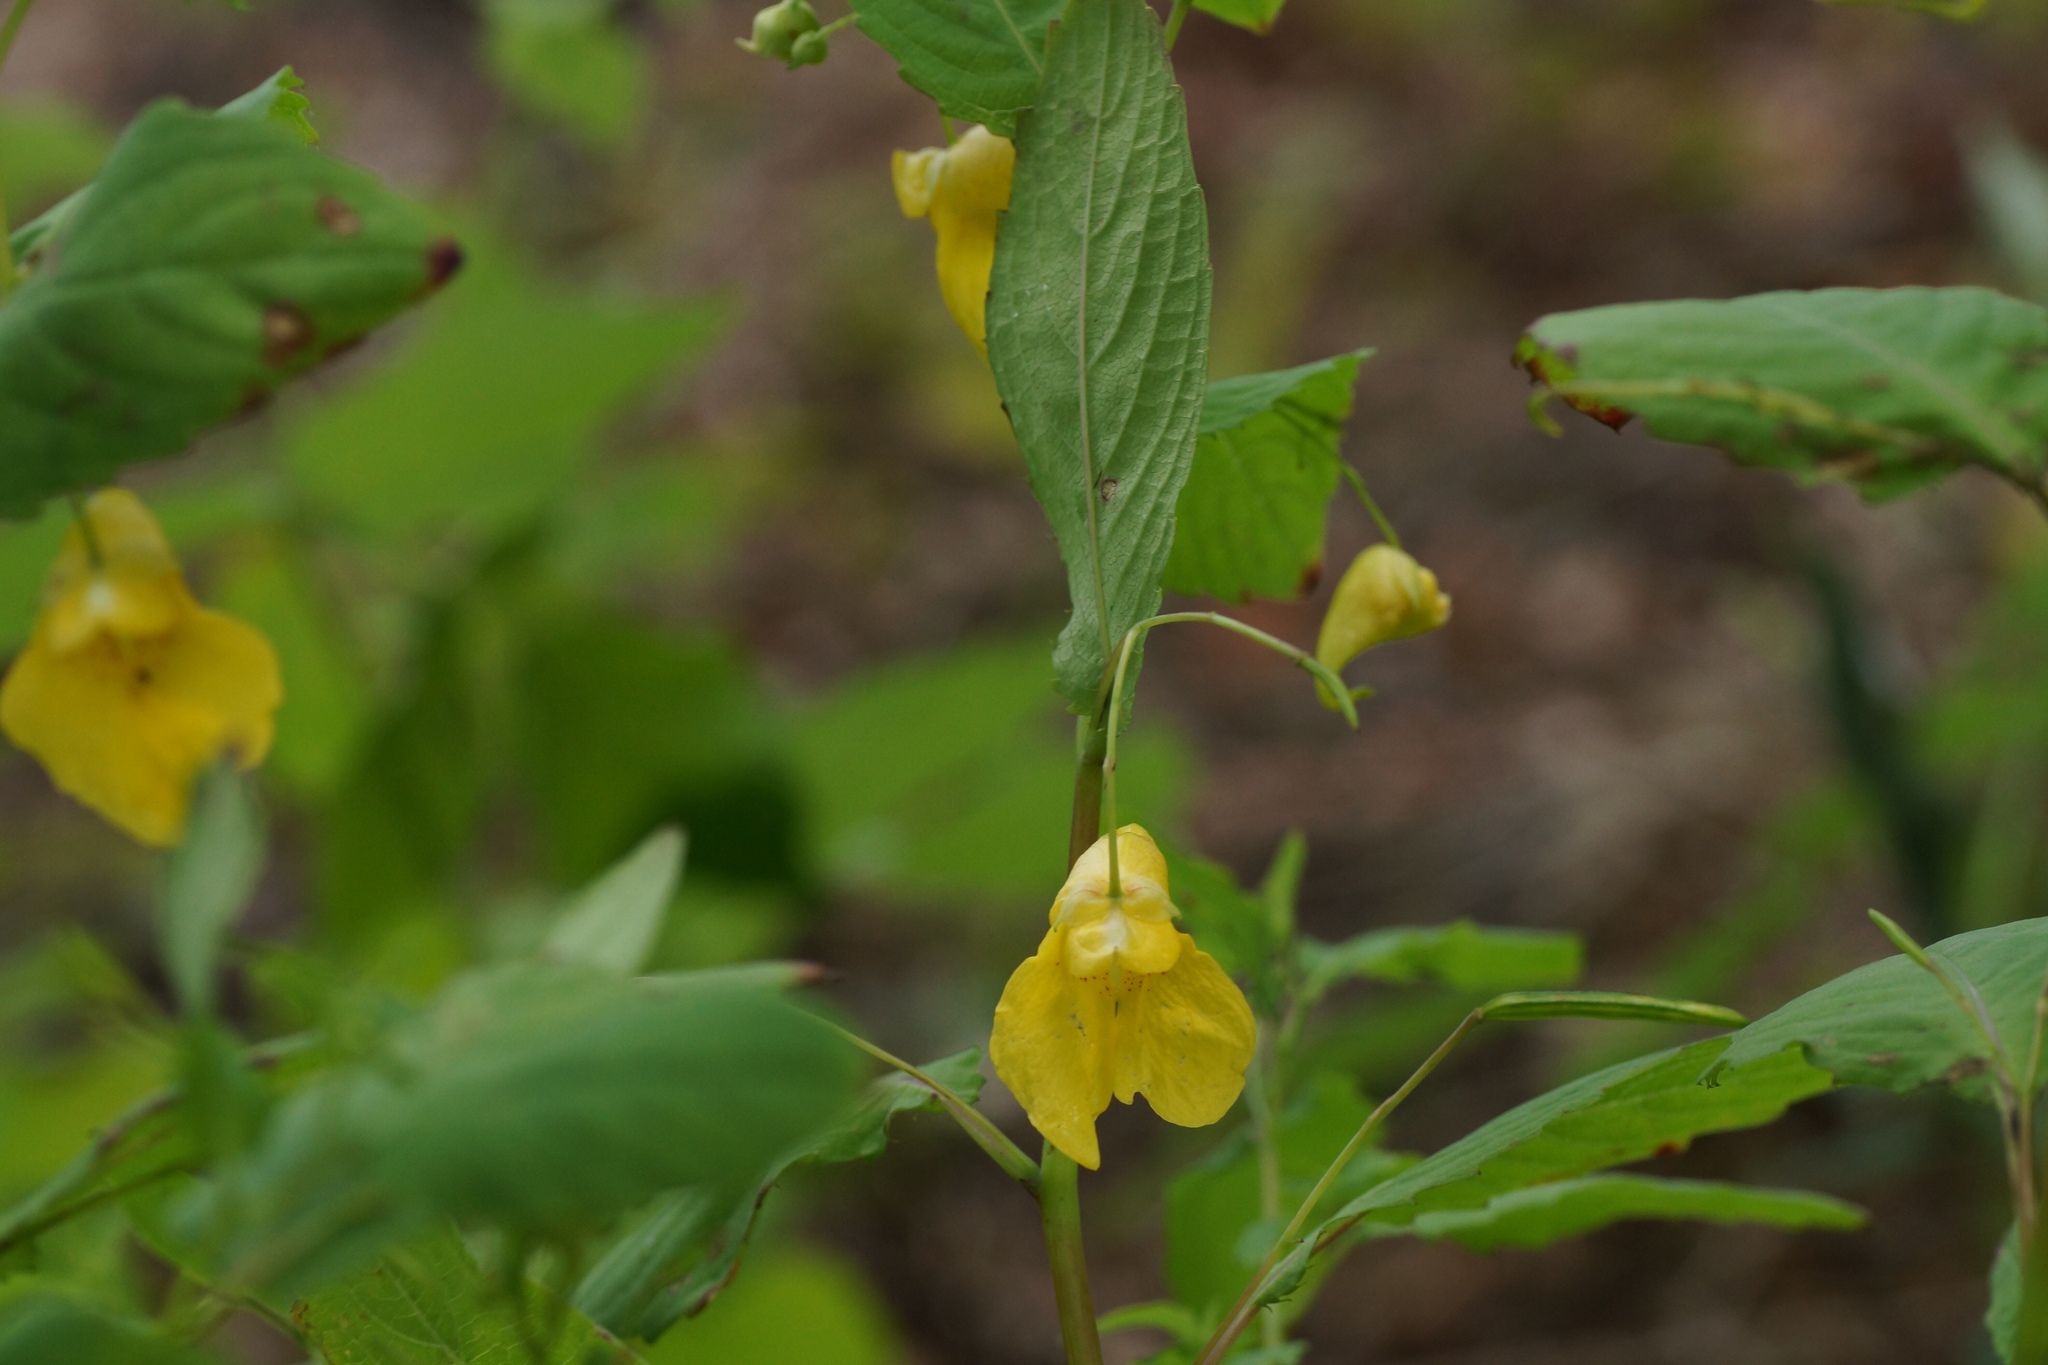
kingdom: Plantae
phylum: Tracheophyta
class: Magnoliopsida
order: Ericales
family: Balsaminaceae
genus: Impatiens
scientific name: Impatiens noli-tangere
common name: Touch-me-not balsam
